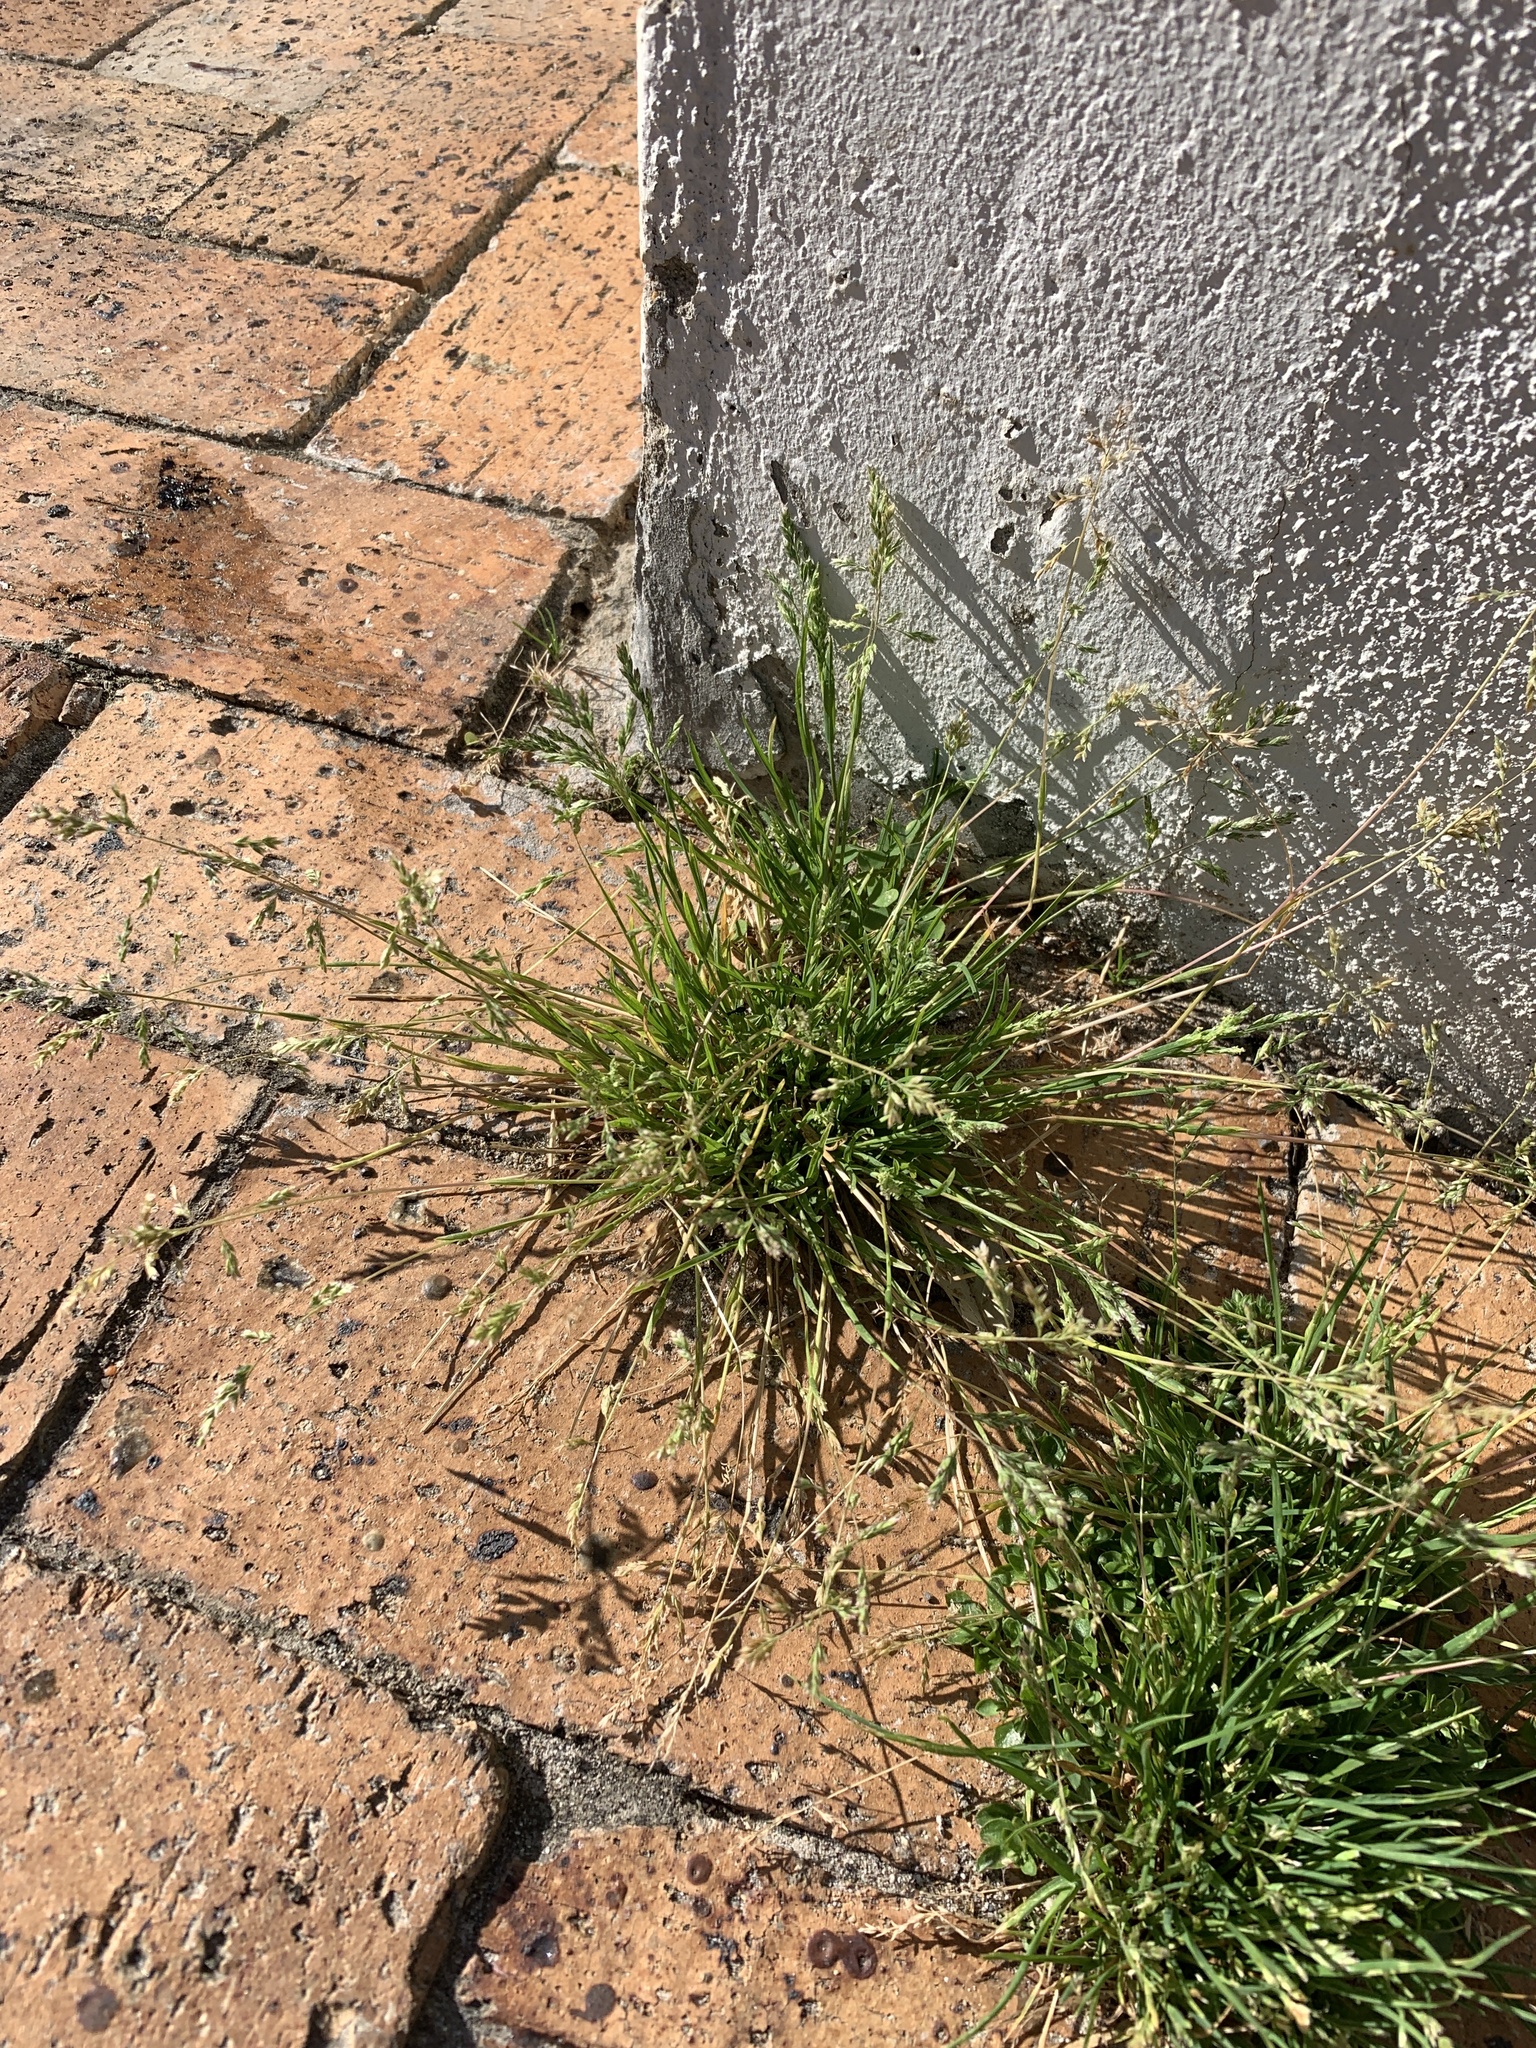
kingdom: Plantae
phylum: Tracheophyta
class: Liliopsida
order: Poales
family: Poaceae
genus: Poa
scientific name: Poa annua
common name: Annual bluegrass
